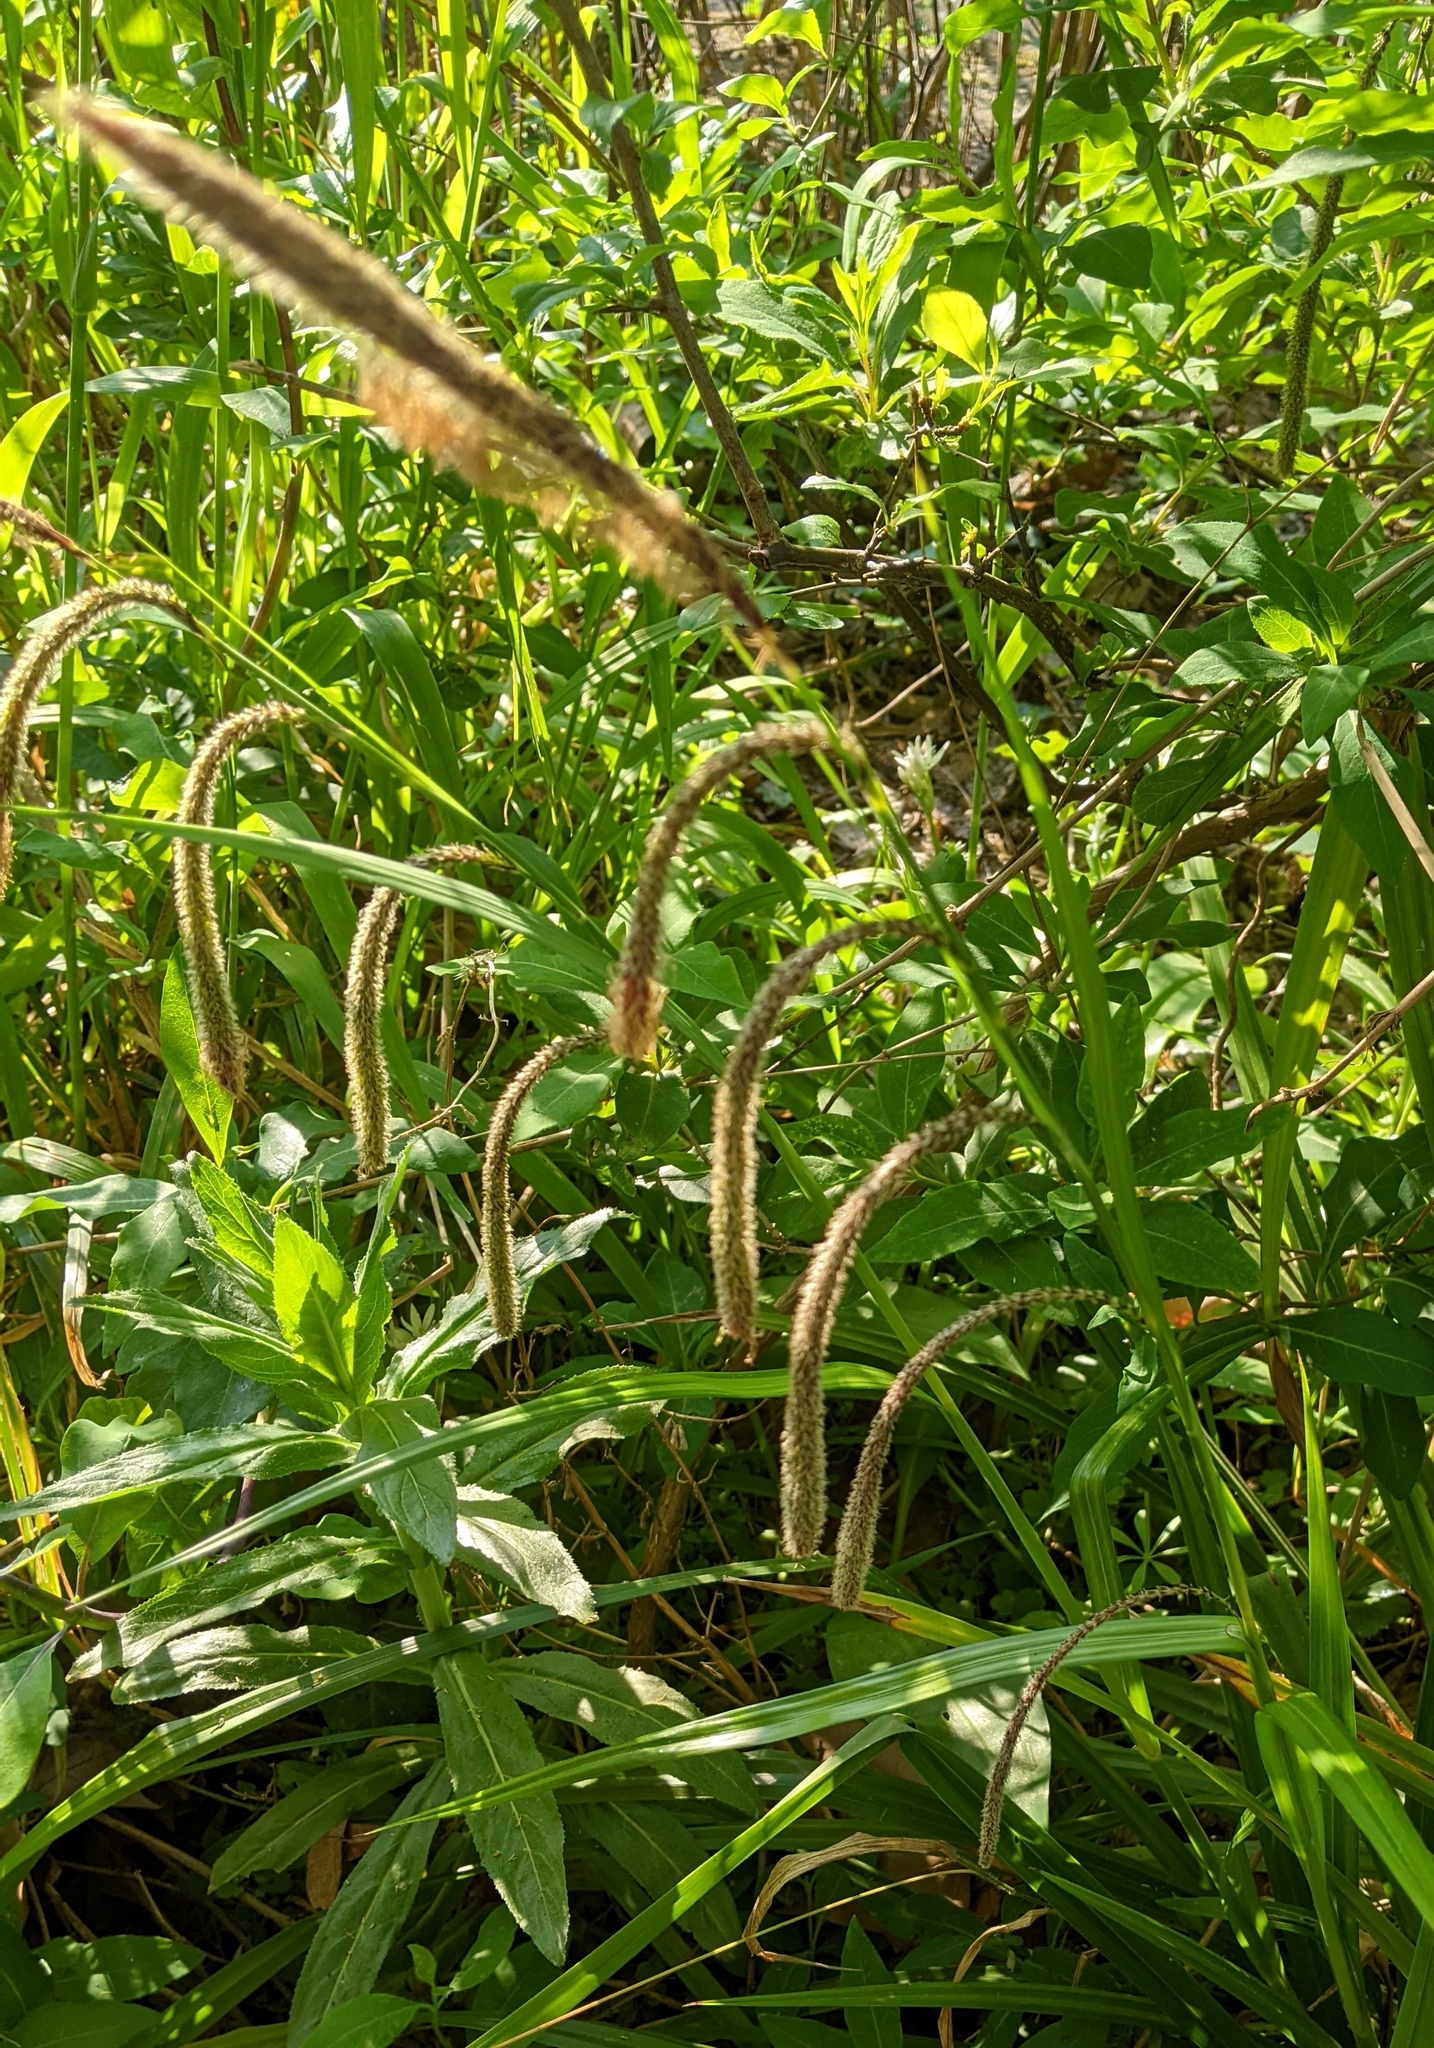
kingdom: Plantae
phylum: Tracheophyta
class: Liliopsida
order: Poales
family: Cyperaceae
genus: Carex
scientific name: Carex pendula
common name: Pendulous sedge
